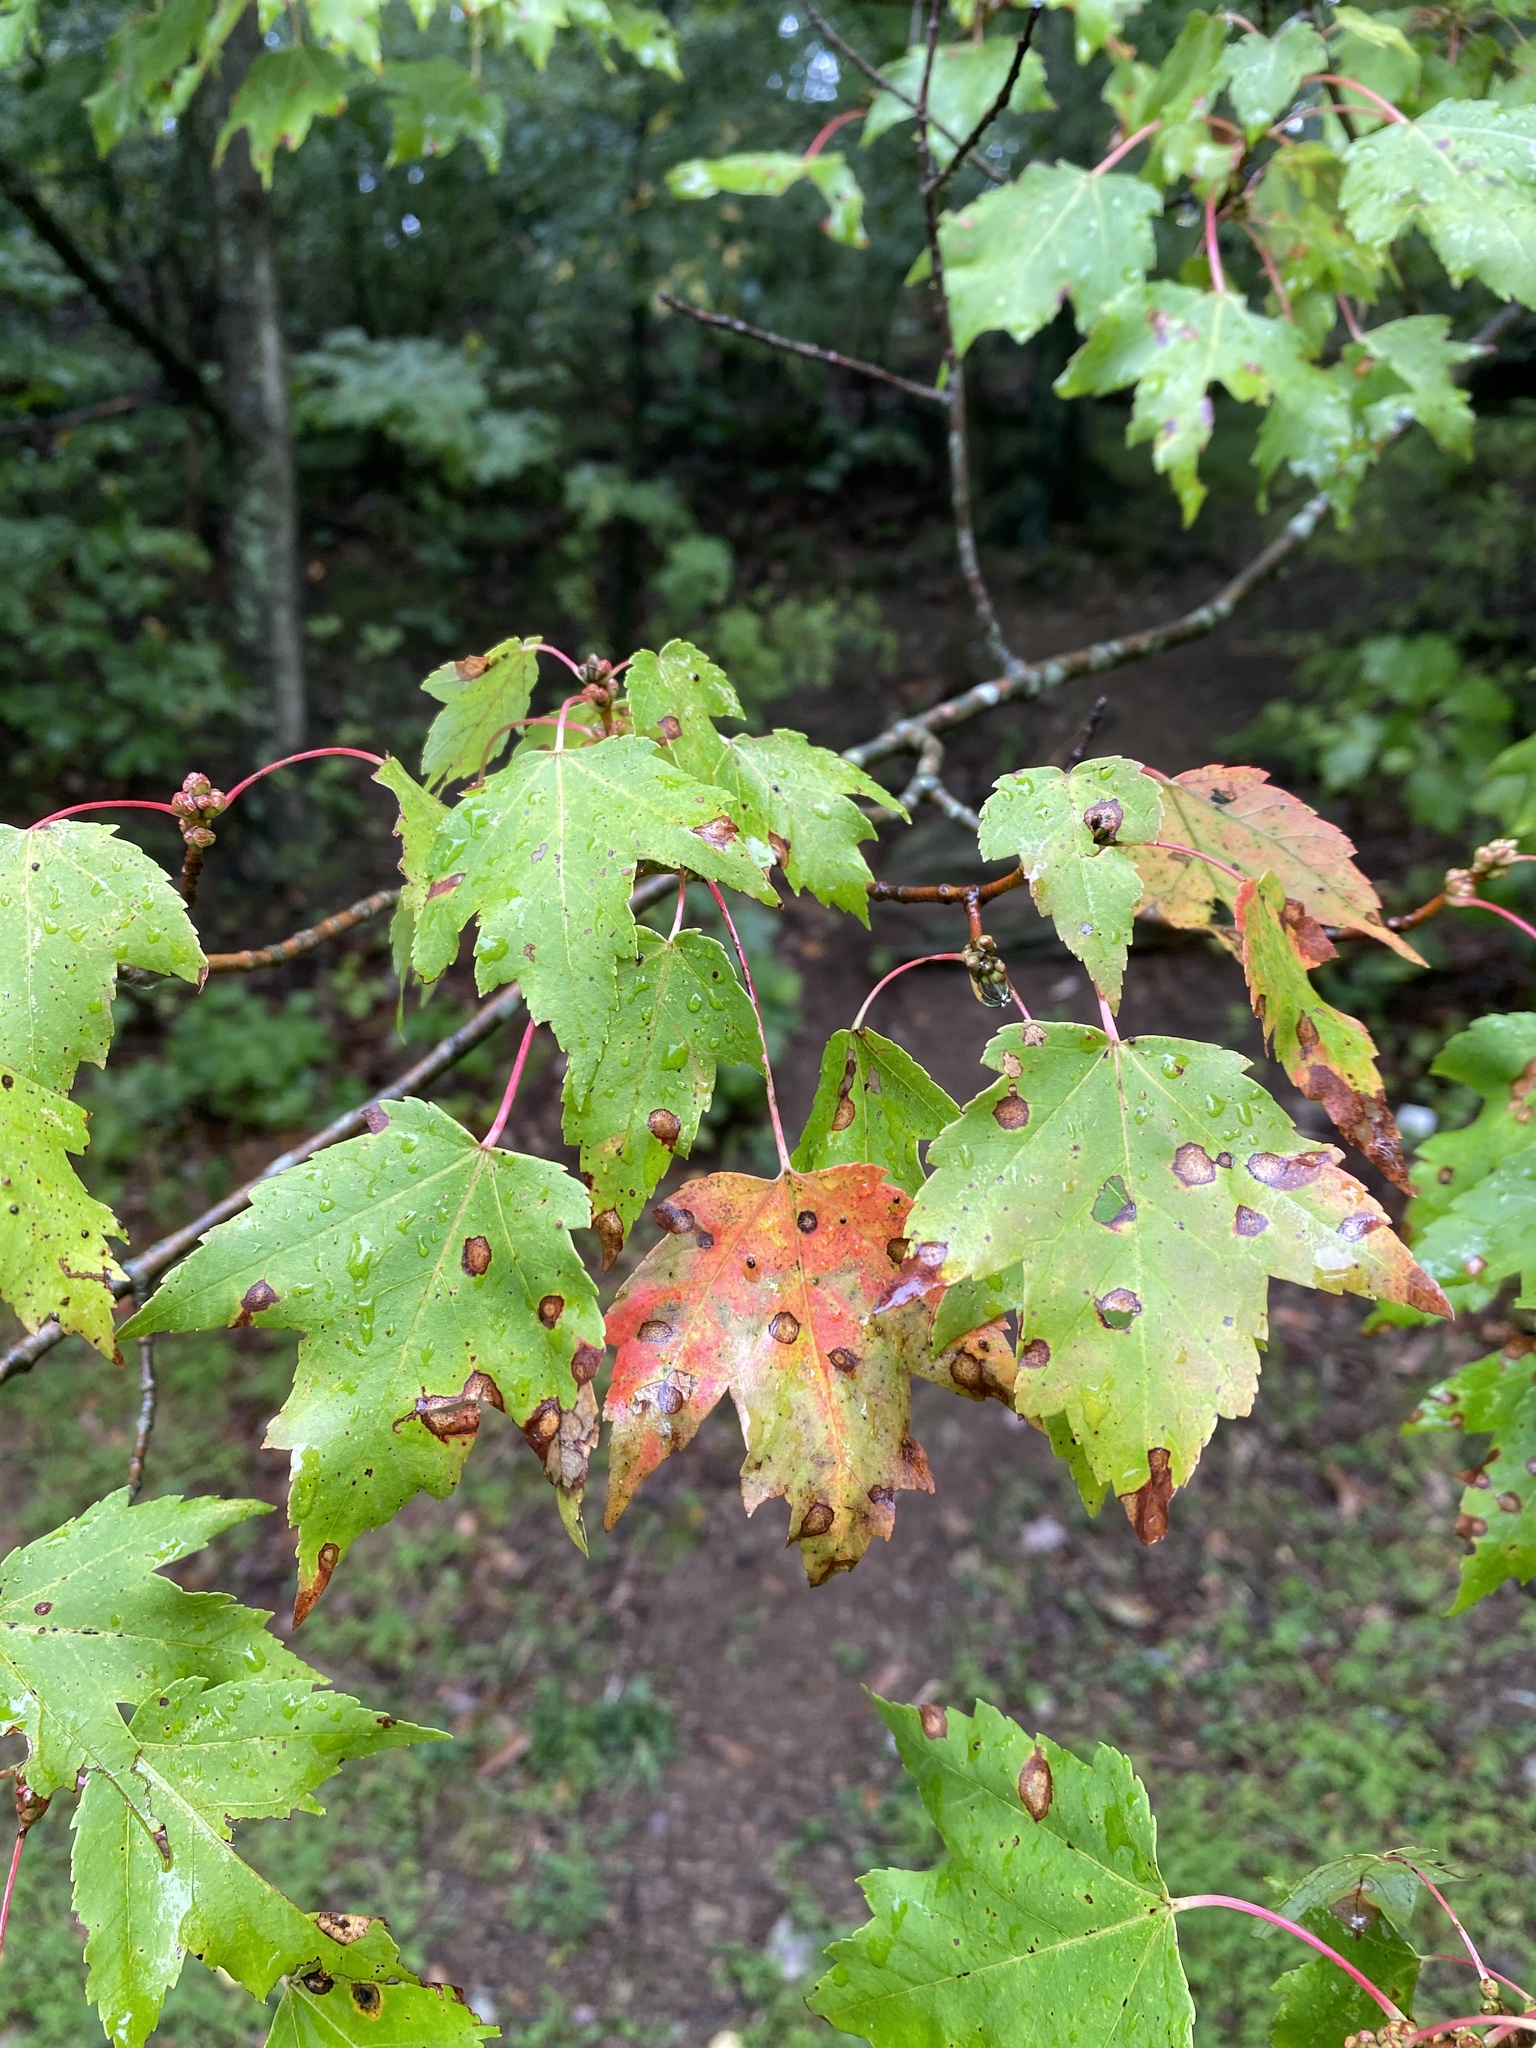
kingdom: Plantae
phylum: Tracheophyta
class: Magnoliopsida
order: Sapindales
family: Sapindaceae
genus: Acer
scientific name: Acer rubrum
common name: Red maple
